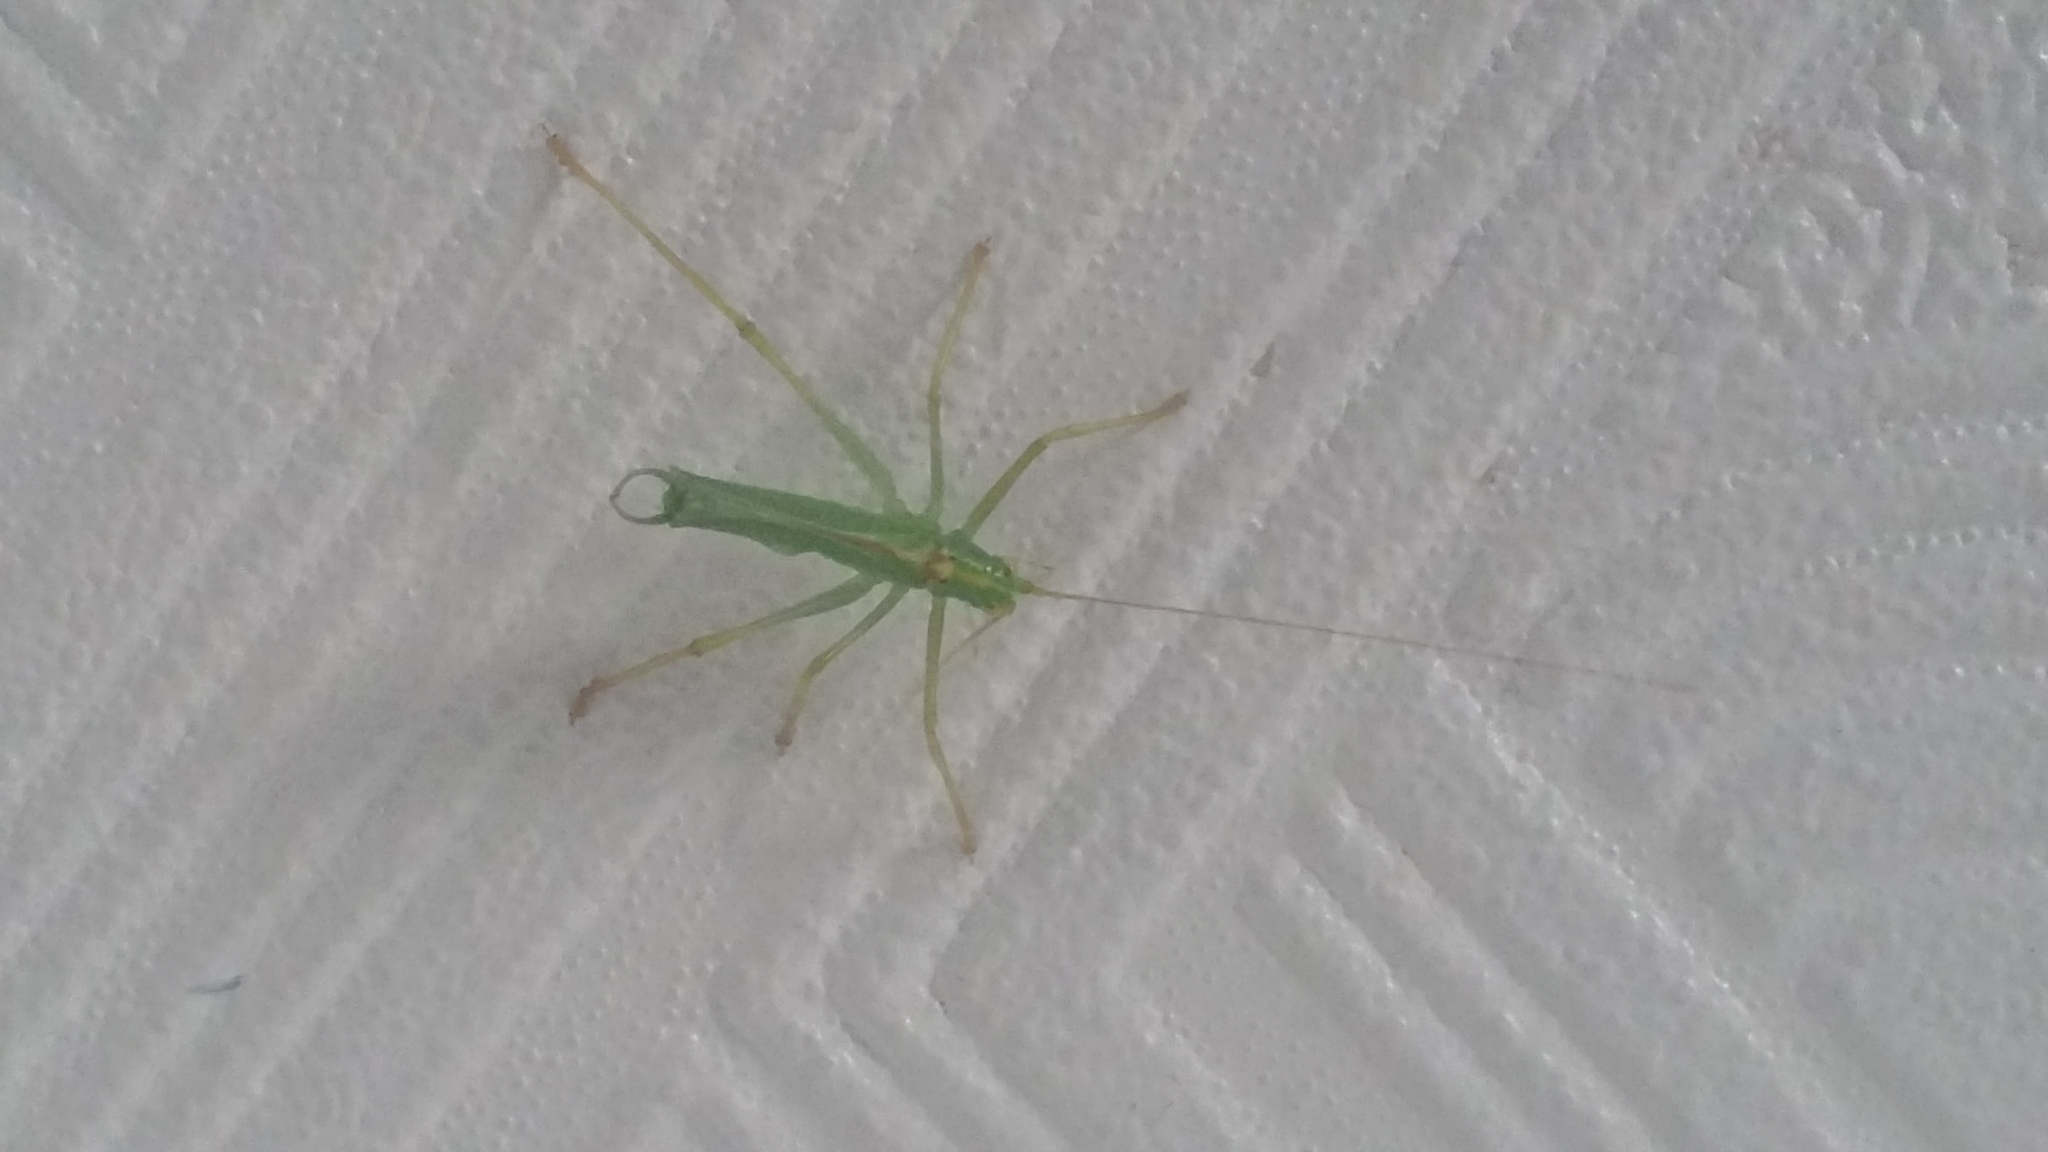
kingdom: Animalia
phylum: Arthropoda
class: Insecta
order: Orthoptera
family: Tettigoniidae
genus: Meconema
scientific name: Meconema thalassinum
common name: Oak bush-cricket
